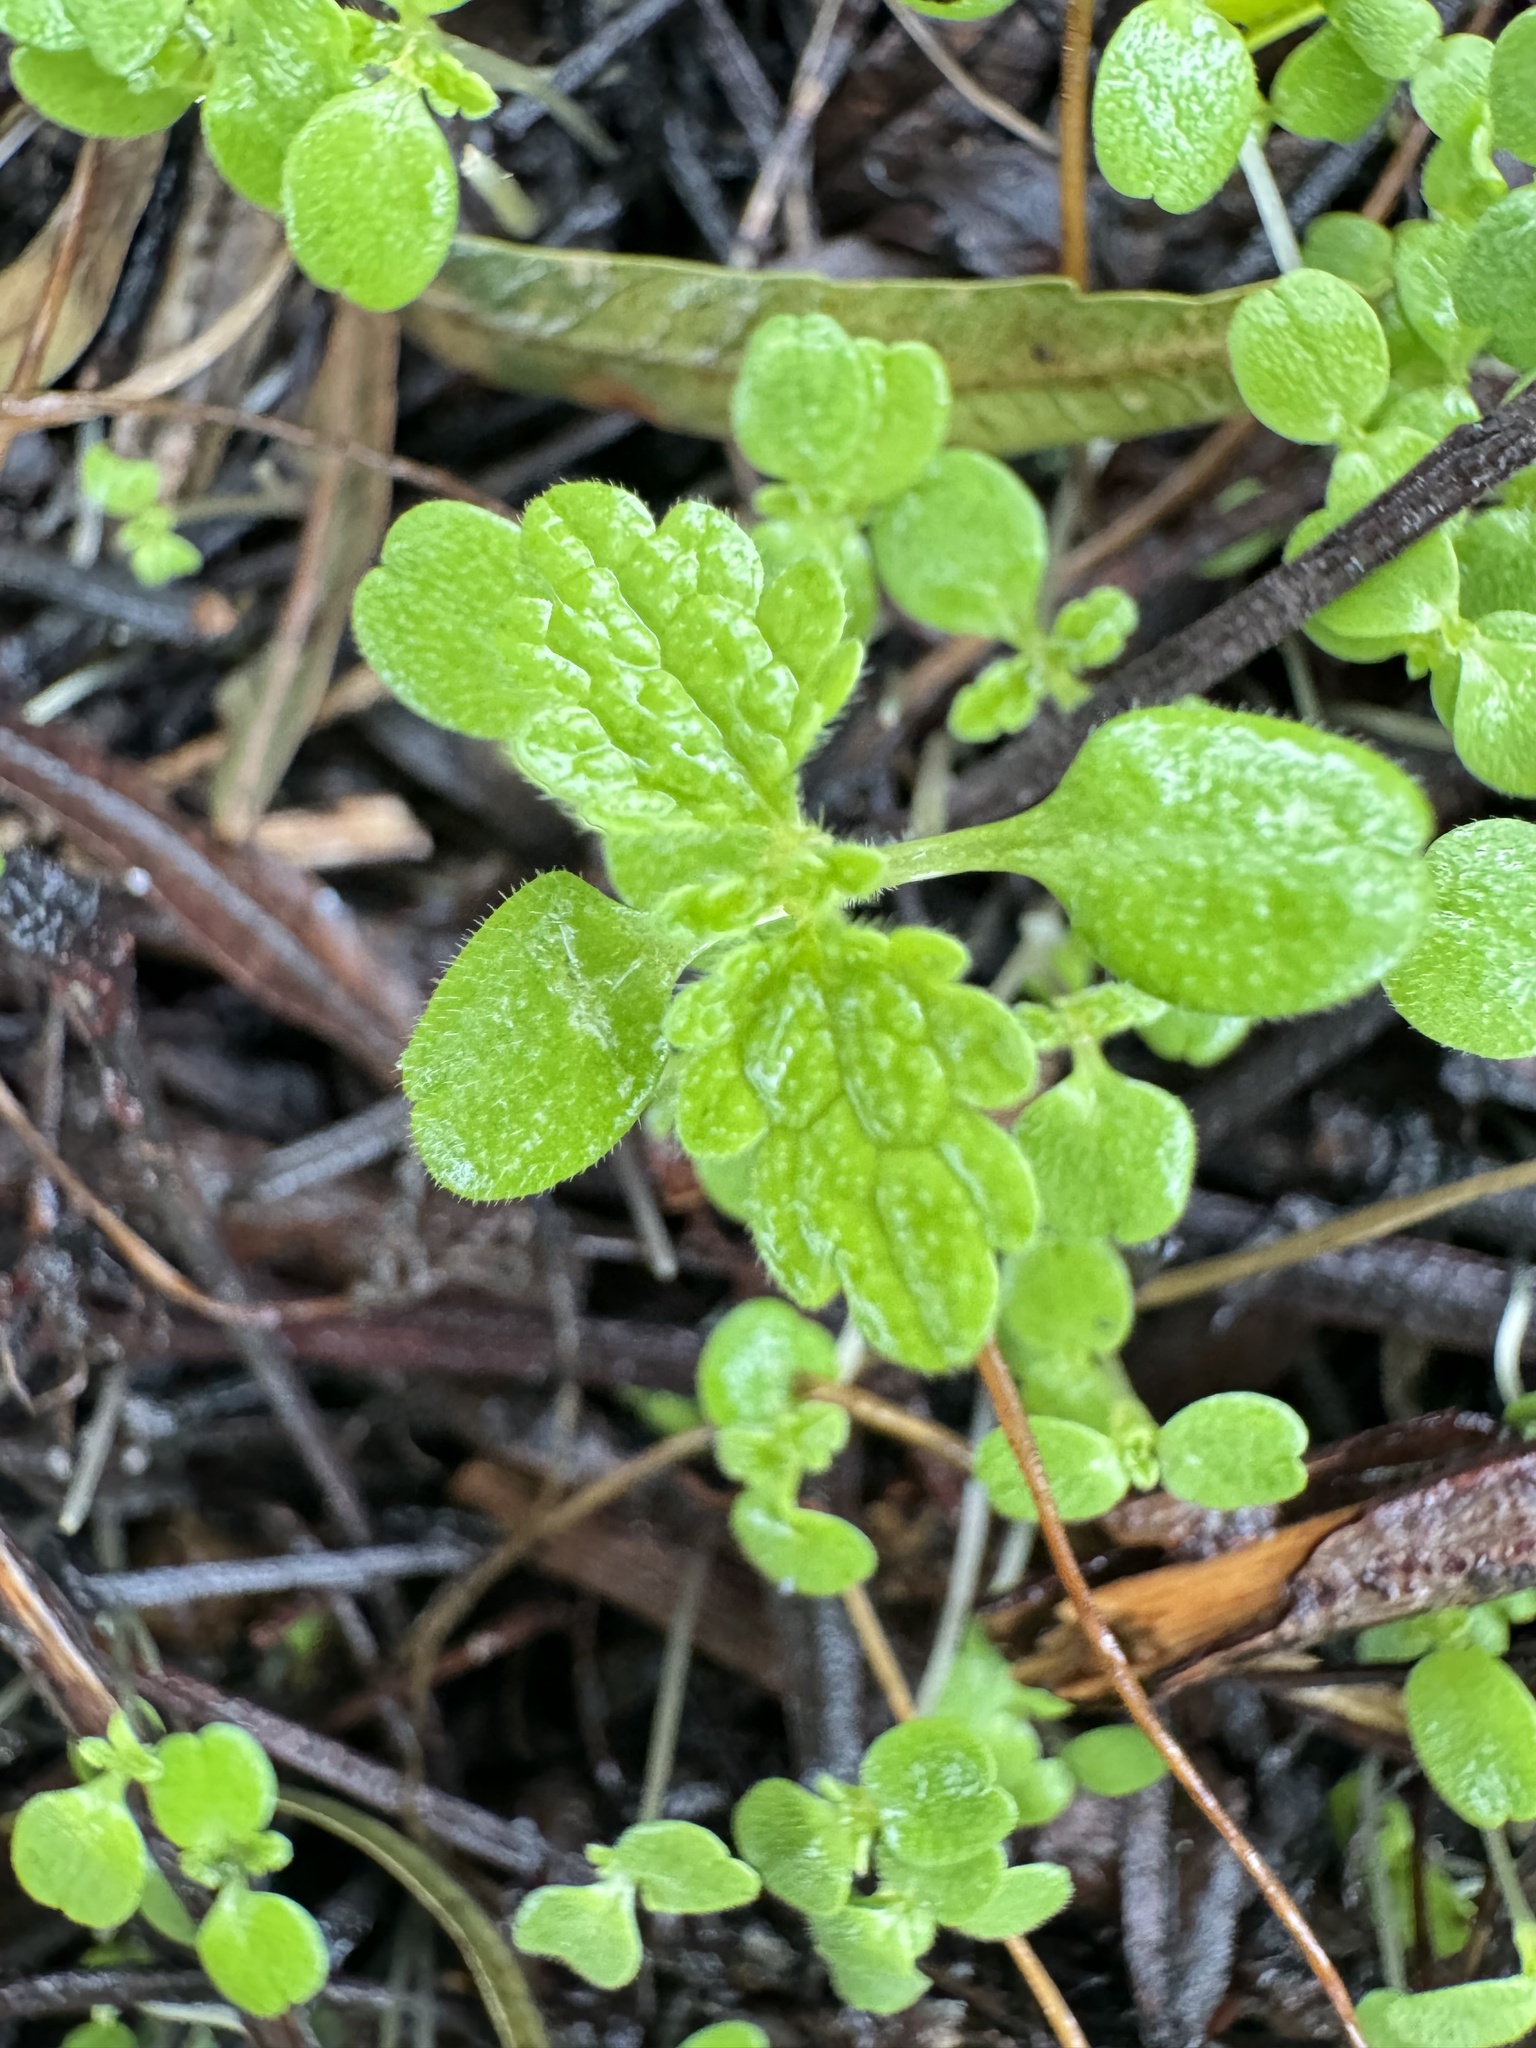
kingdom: Plantae
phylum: Tracheophyta
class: Magnoliopsida
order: Rosales
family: Urticaceae
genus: Urtica
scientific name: Urtica urens
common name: Dwarf nettle
